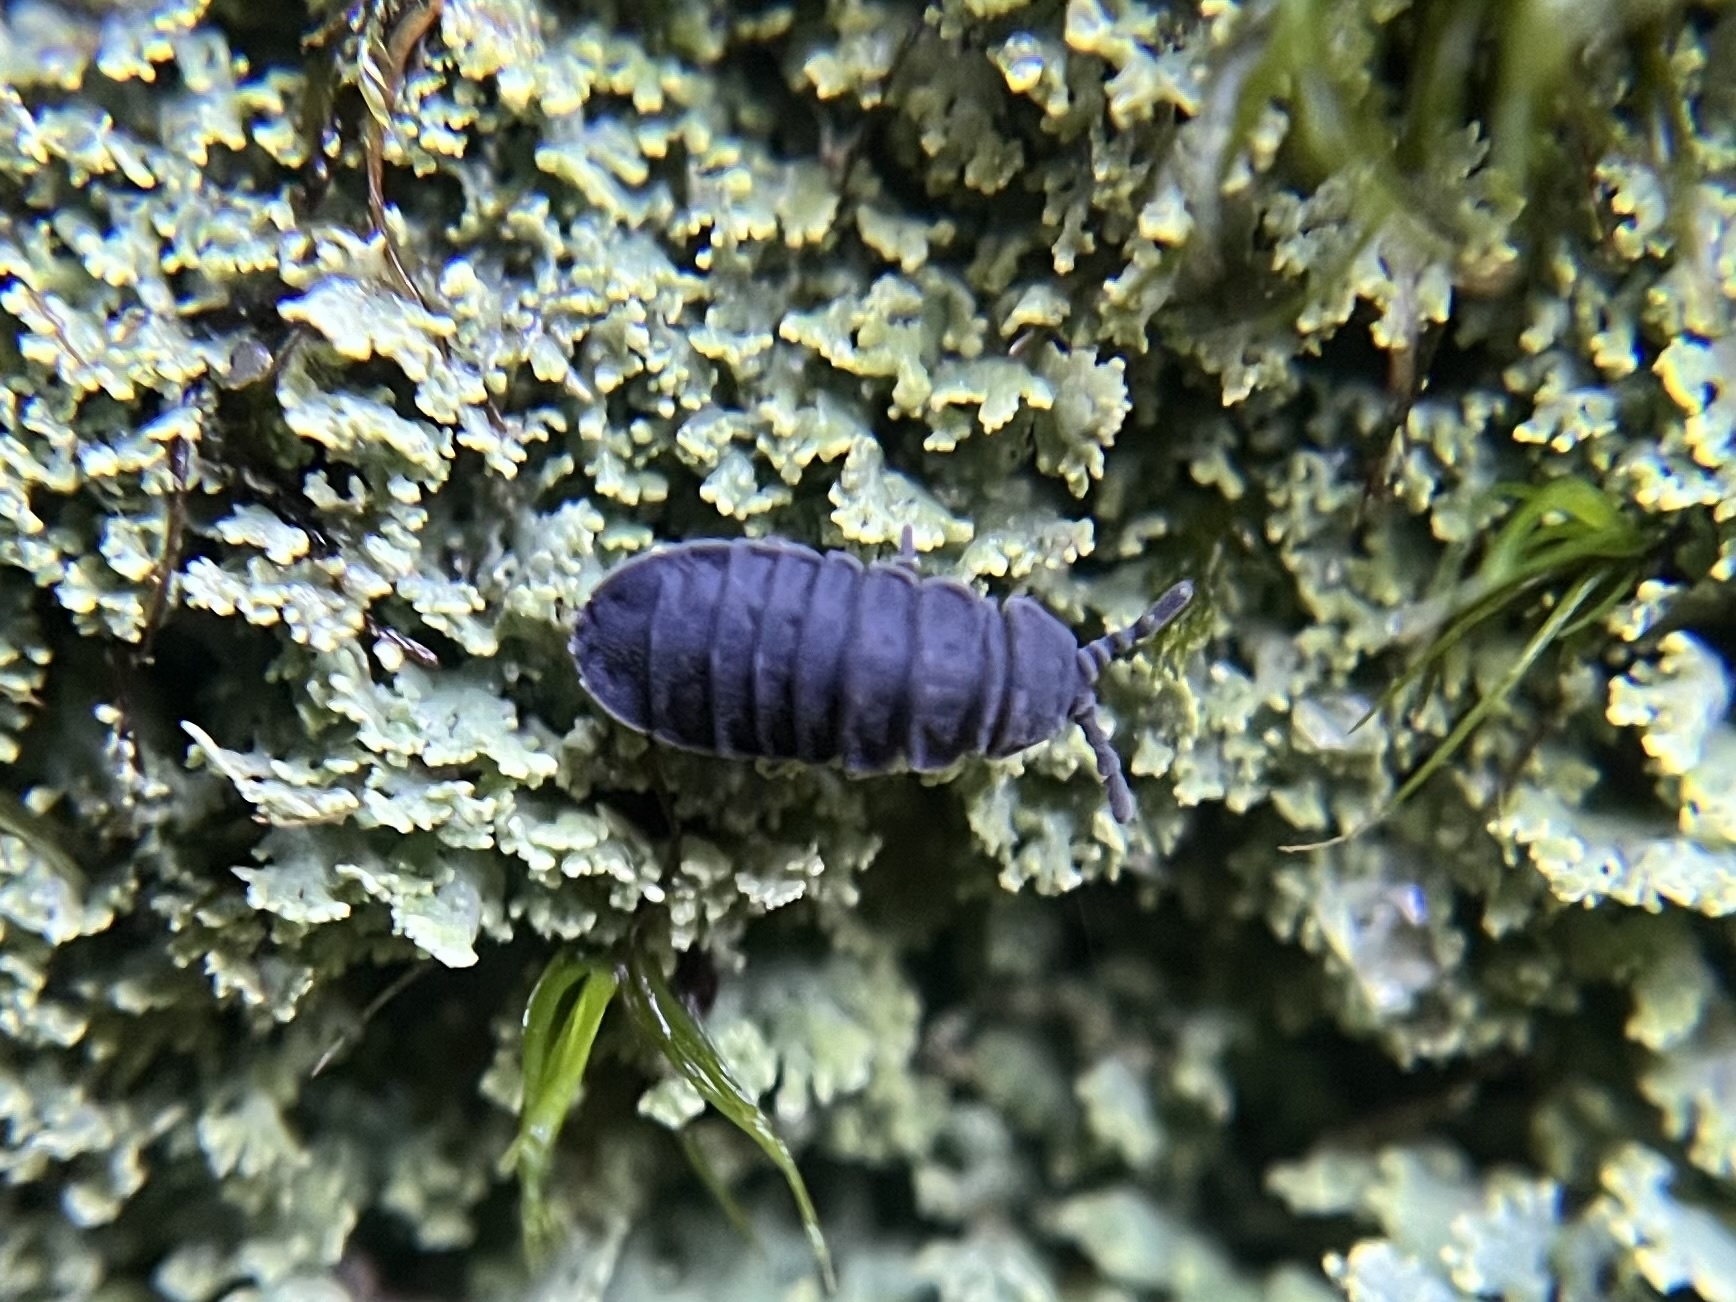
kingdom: Animalia
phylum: Arthropoda
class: Collembola
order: Poduromorpha
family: Onychiuridae
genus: Tetrodontophora
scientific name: Tetrodontophora bielanensis
